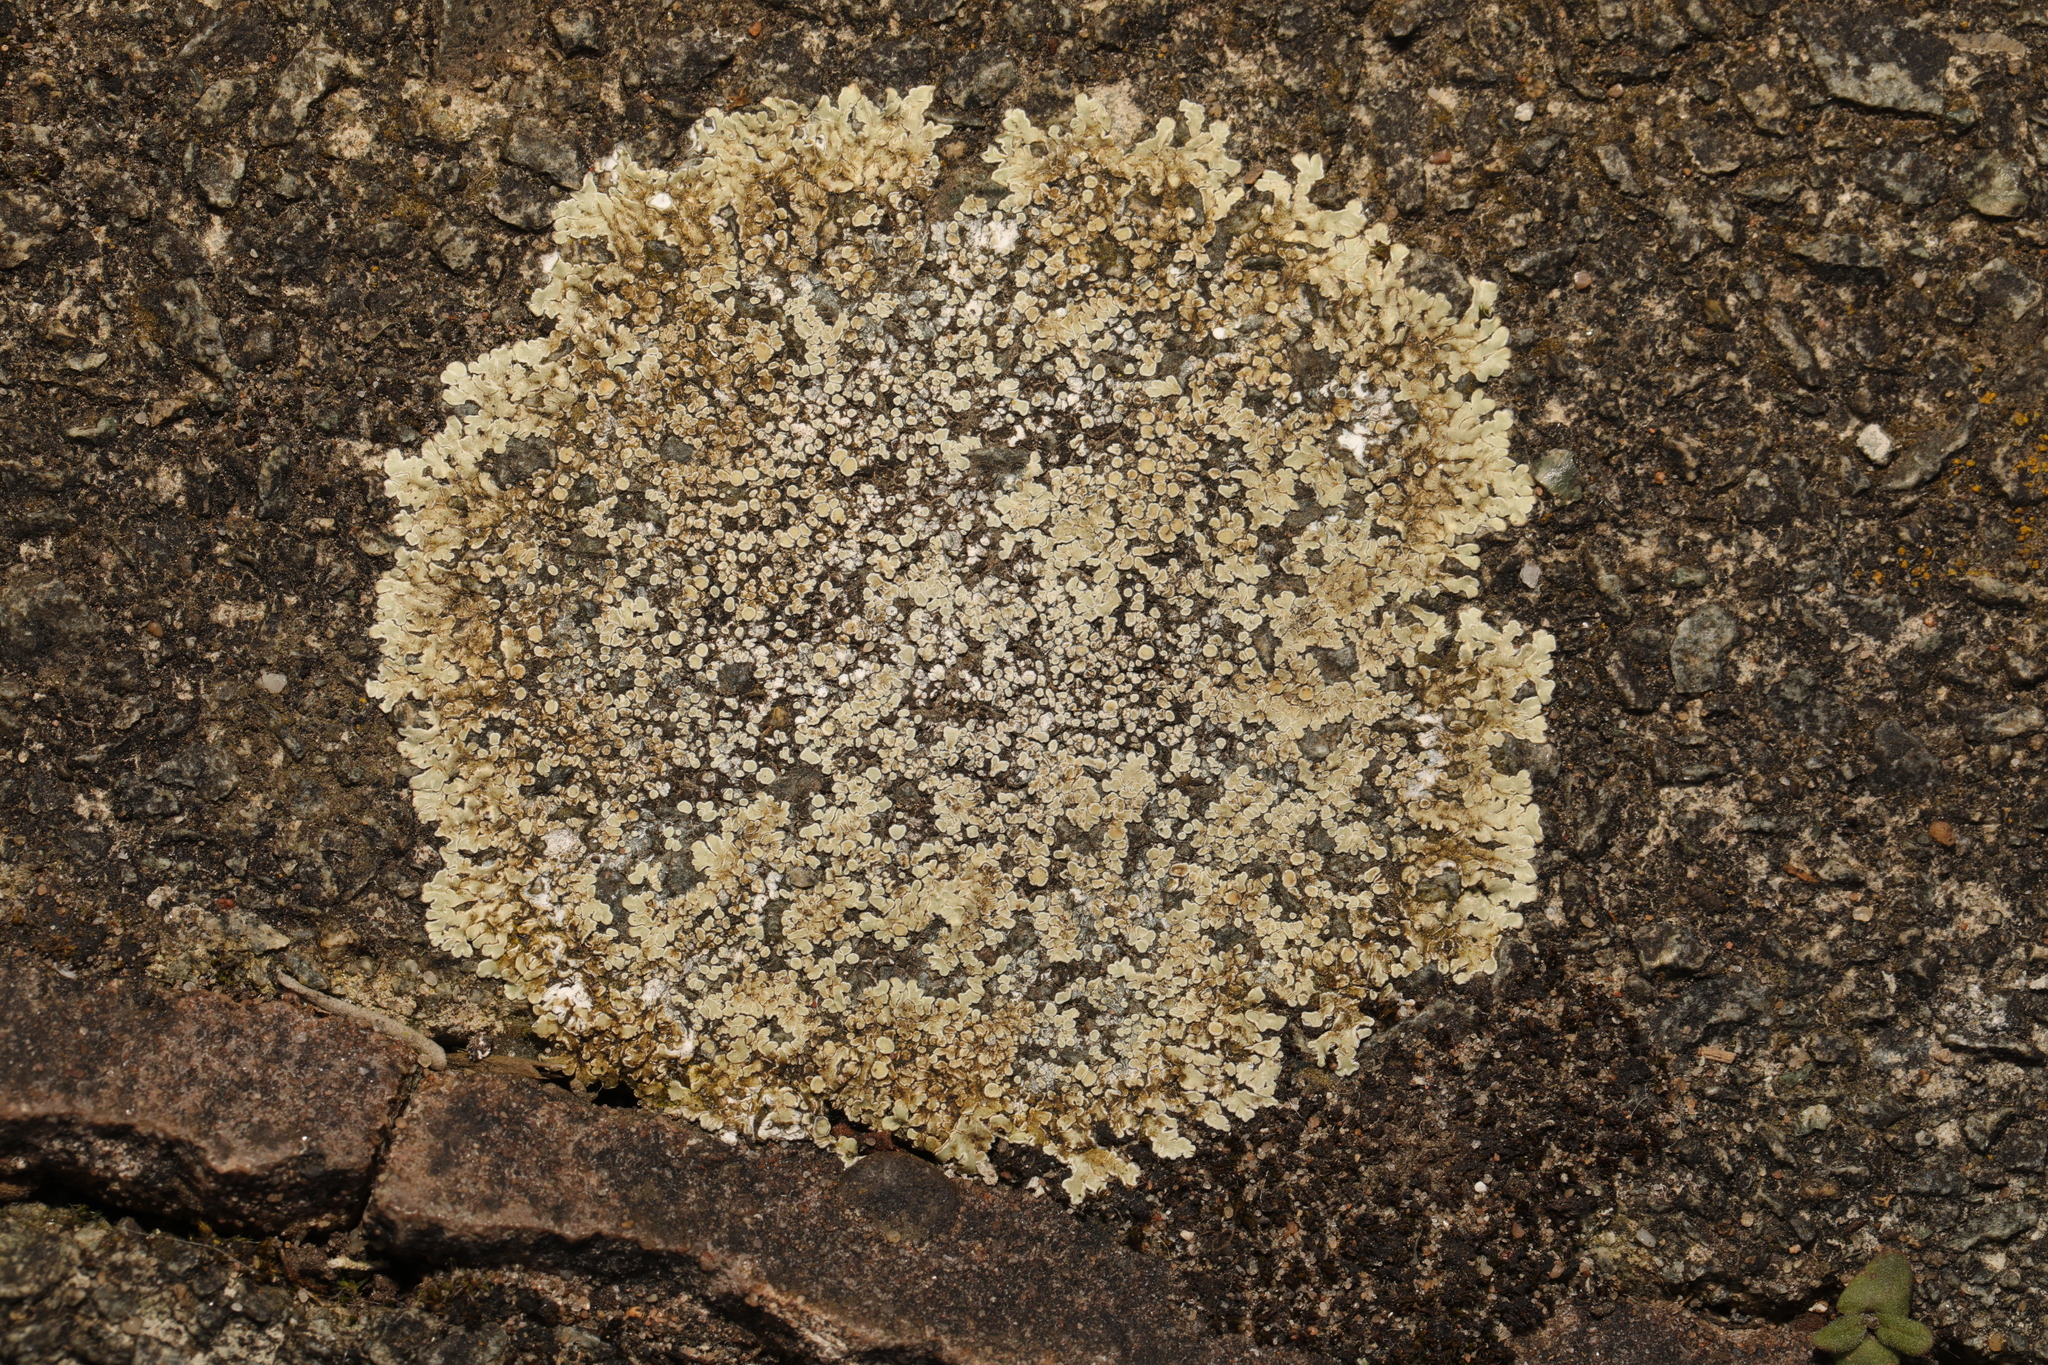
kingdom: Fungi
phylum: Ascomycota
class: Lecanoromycetes
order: Lecanorales
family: Lecanoraceae
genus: Protoparmeliopsis
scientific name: Protoparmeliopsis muralis
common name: Stonewall rim lichen
